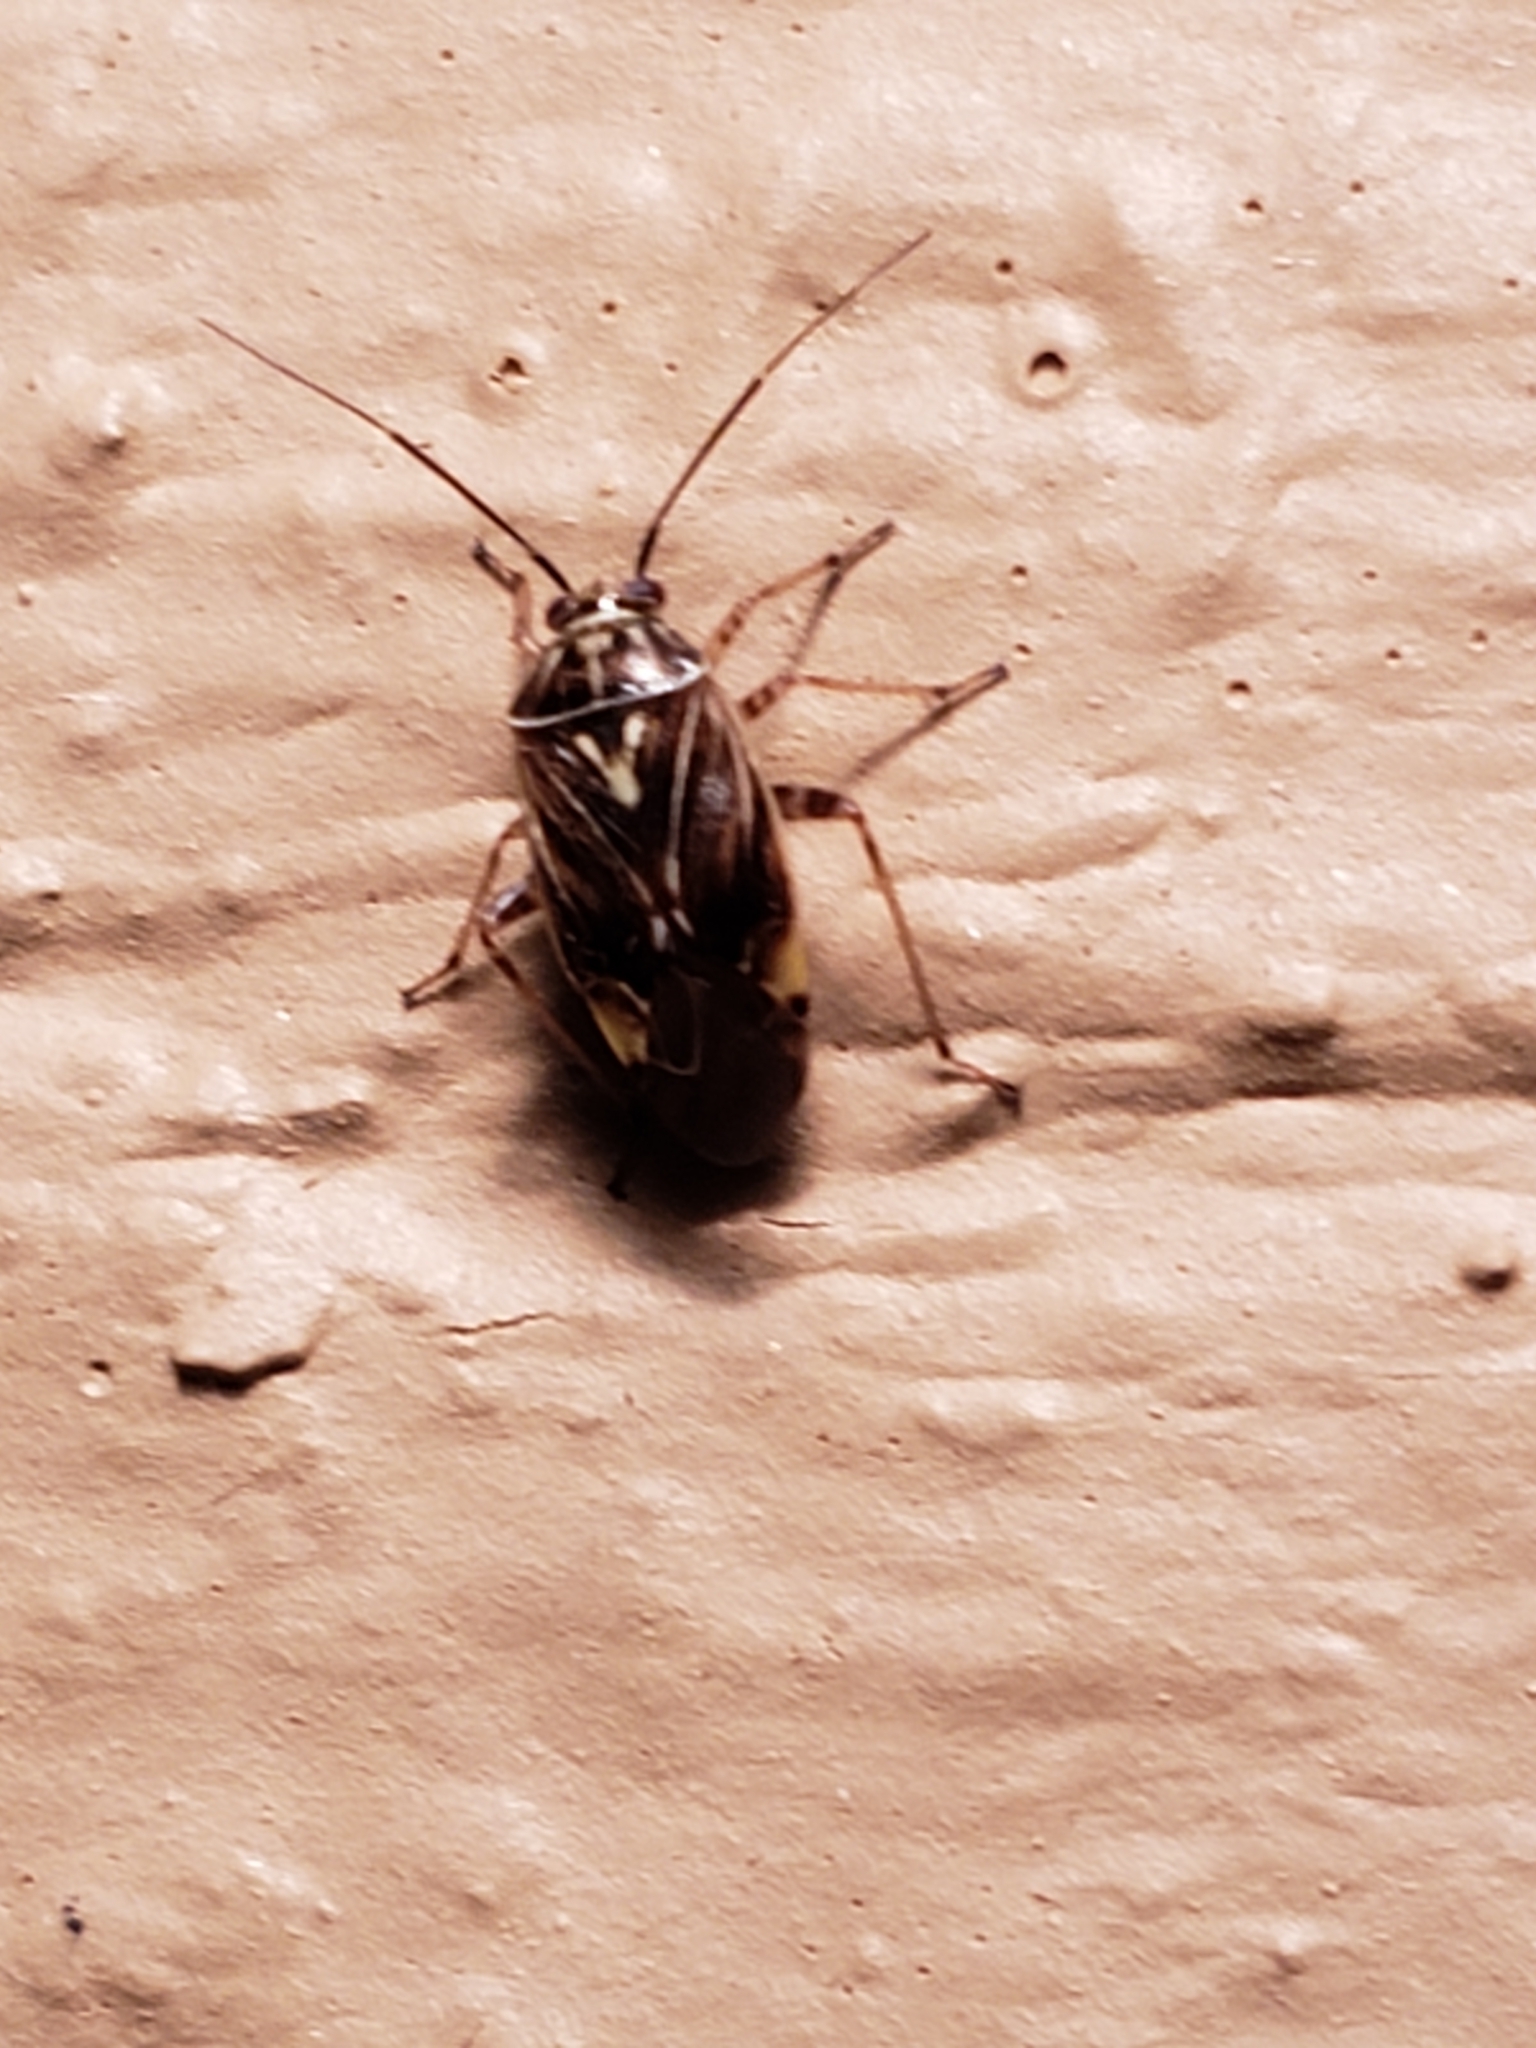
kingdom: Animalia
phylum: Arthropoda
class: Insecta
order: Hemiptera
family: Miridae
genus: Lygus
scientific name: Lygus lineolaris
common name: North american tarnished plant bug
